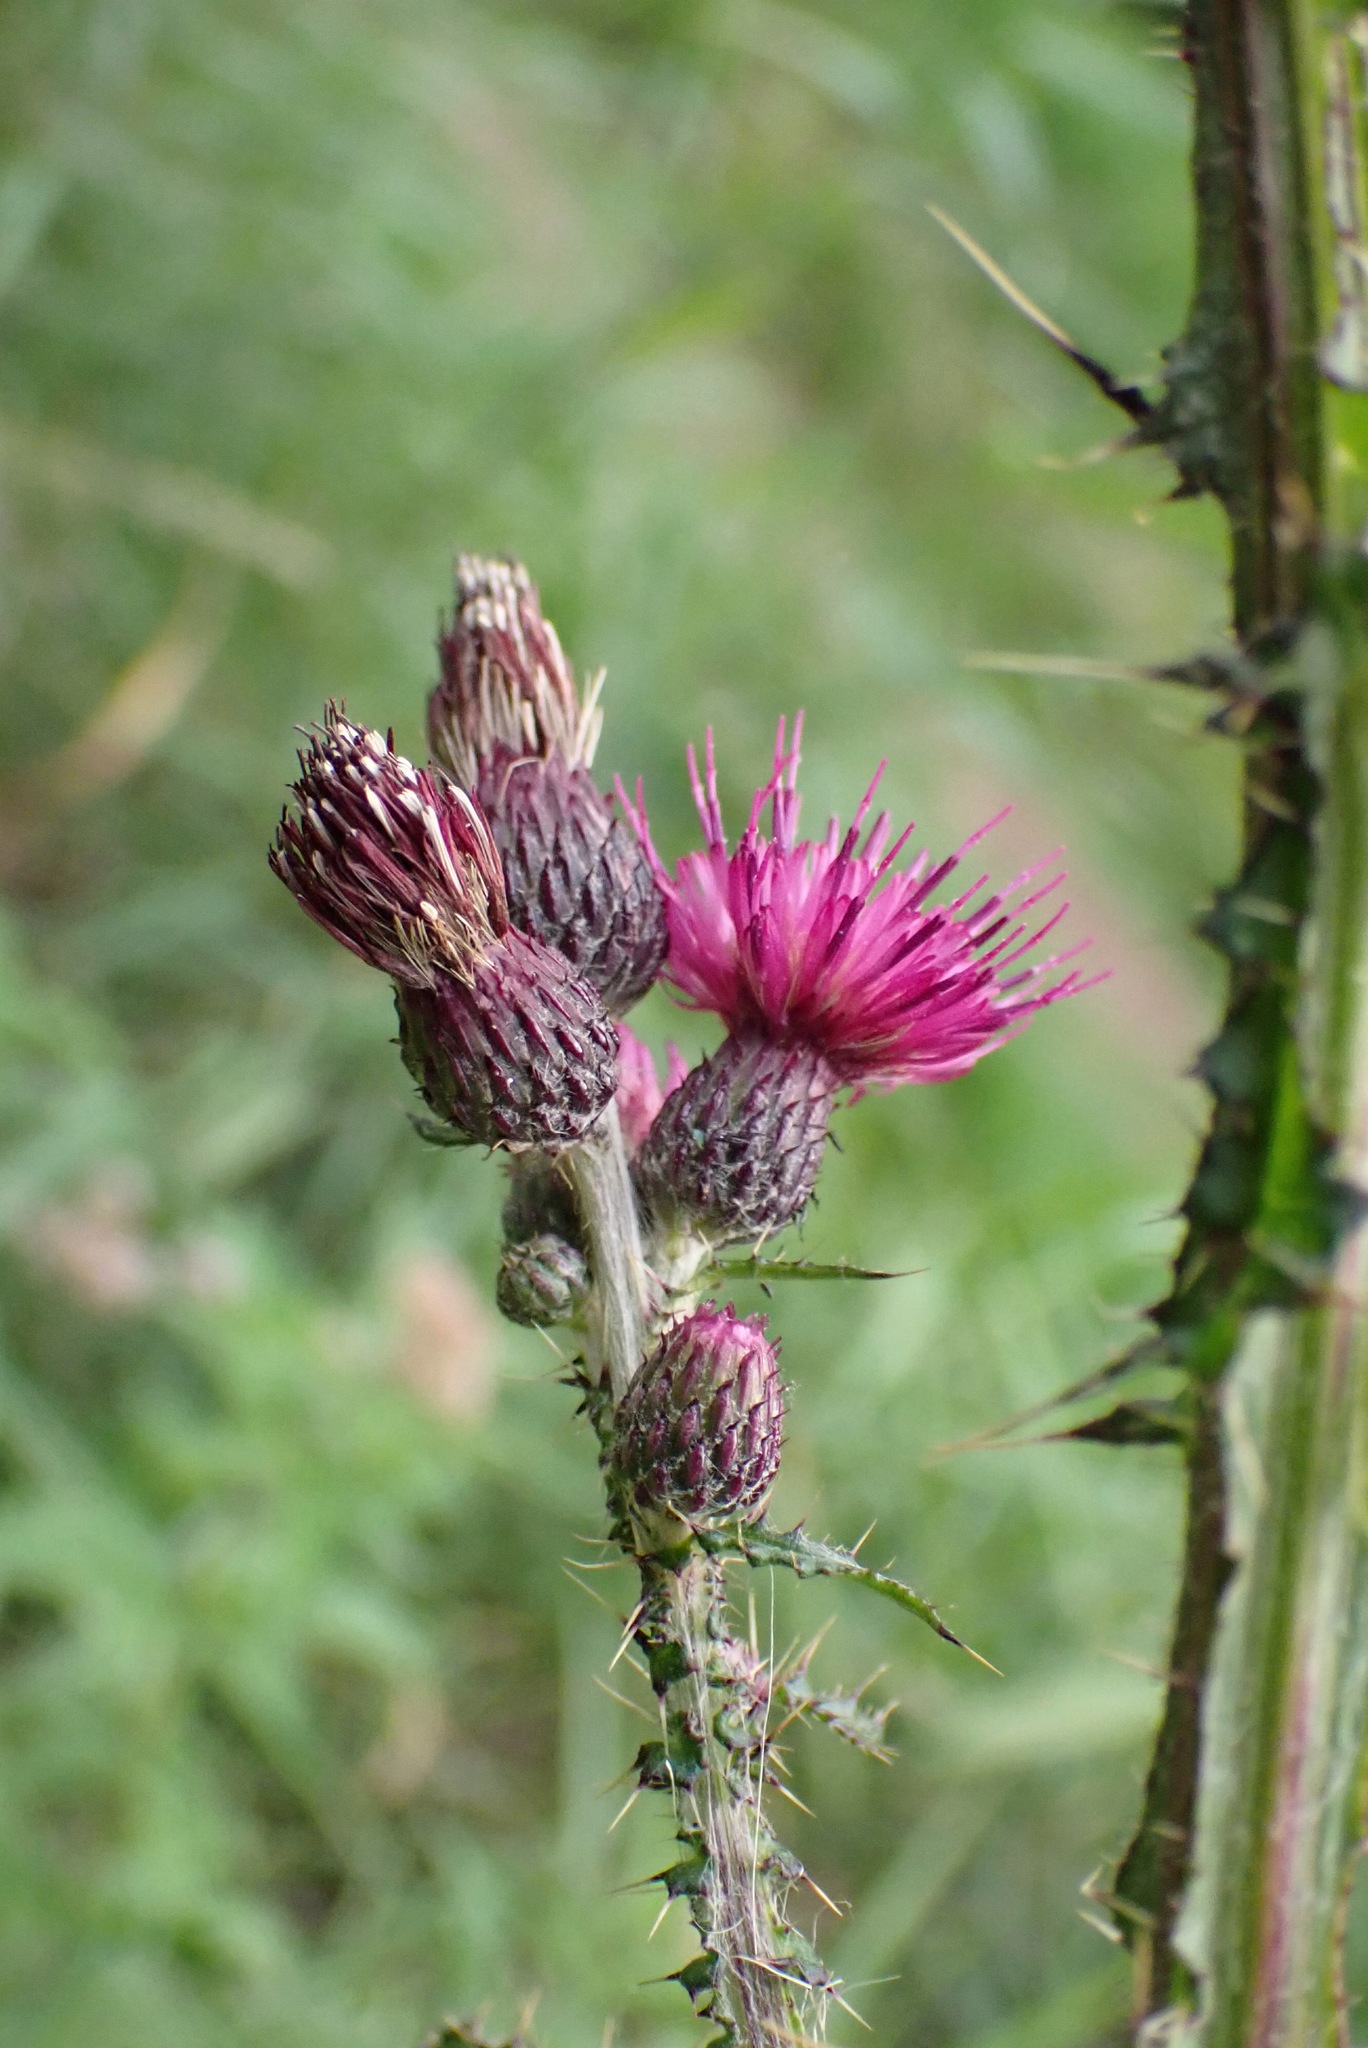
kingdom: Plantae
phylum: Tracheophyta
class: Magnoliopsida
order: Asterales
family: Asteraceae
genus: Cirsium
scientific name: Cirsium palustre
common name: Marsh thistle
